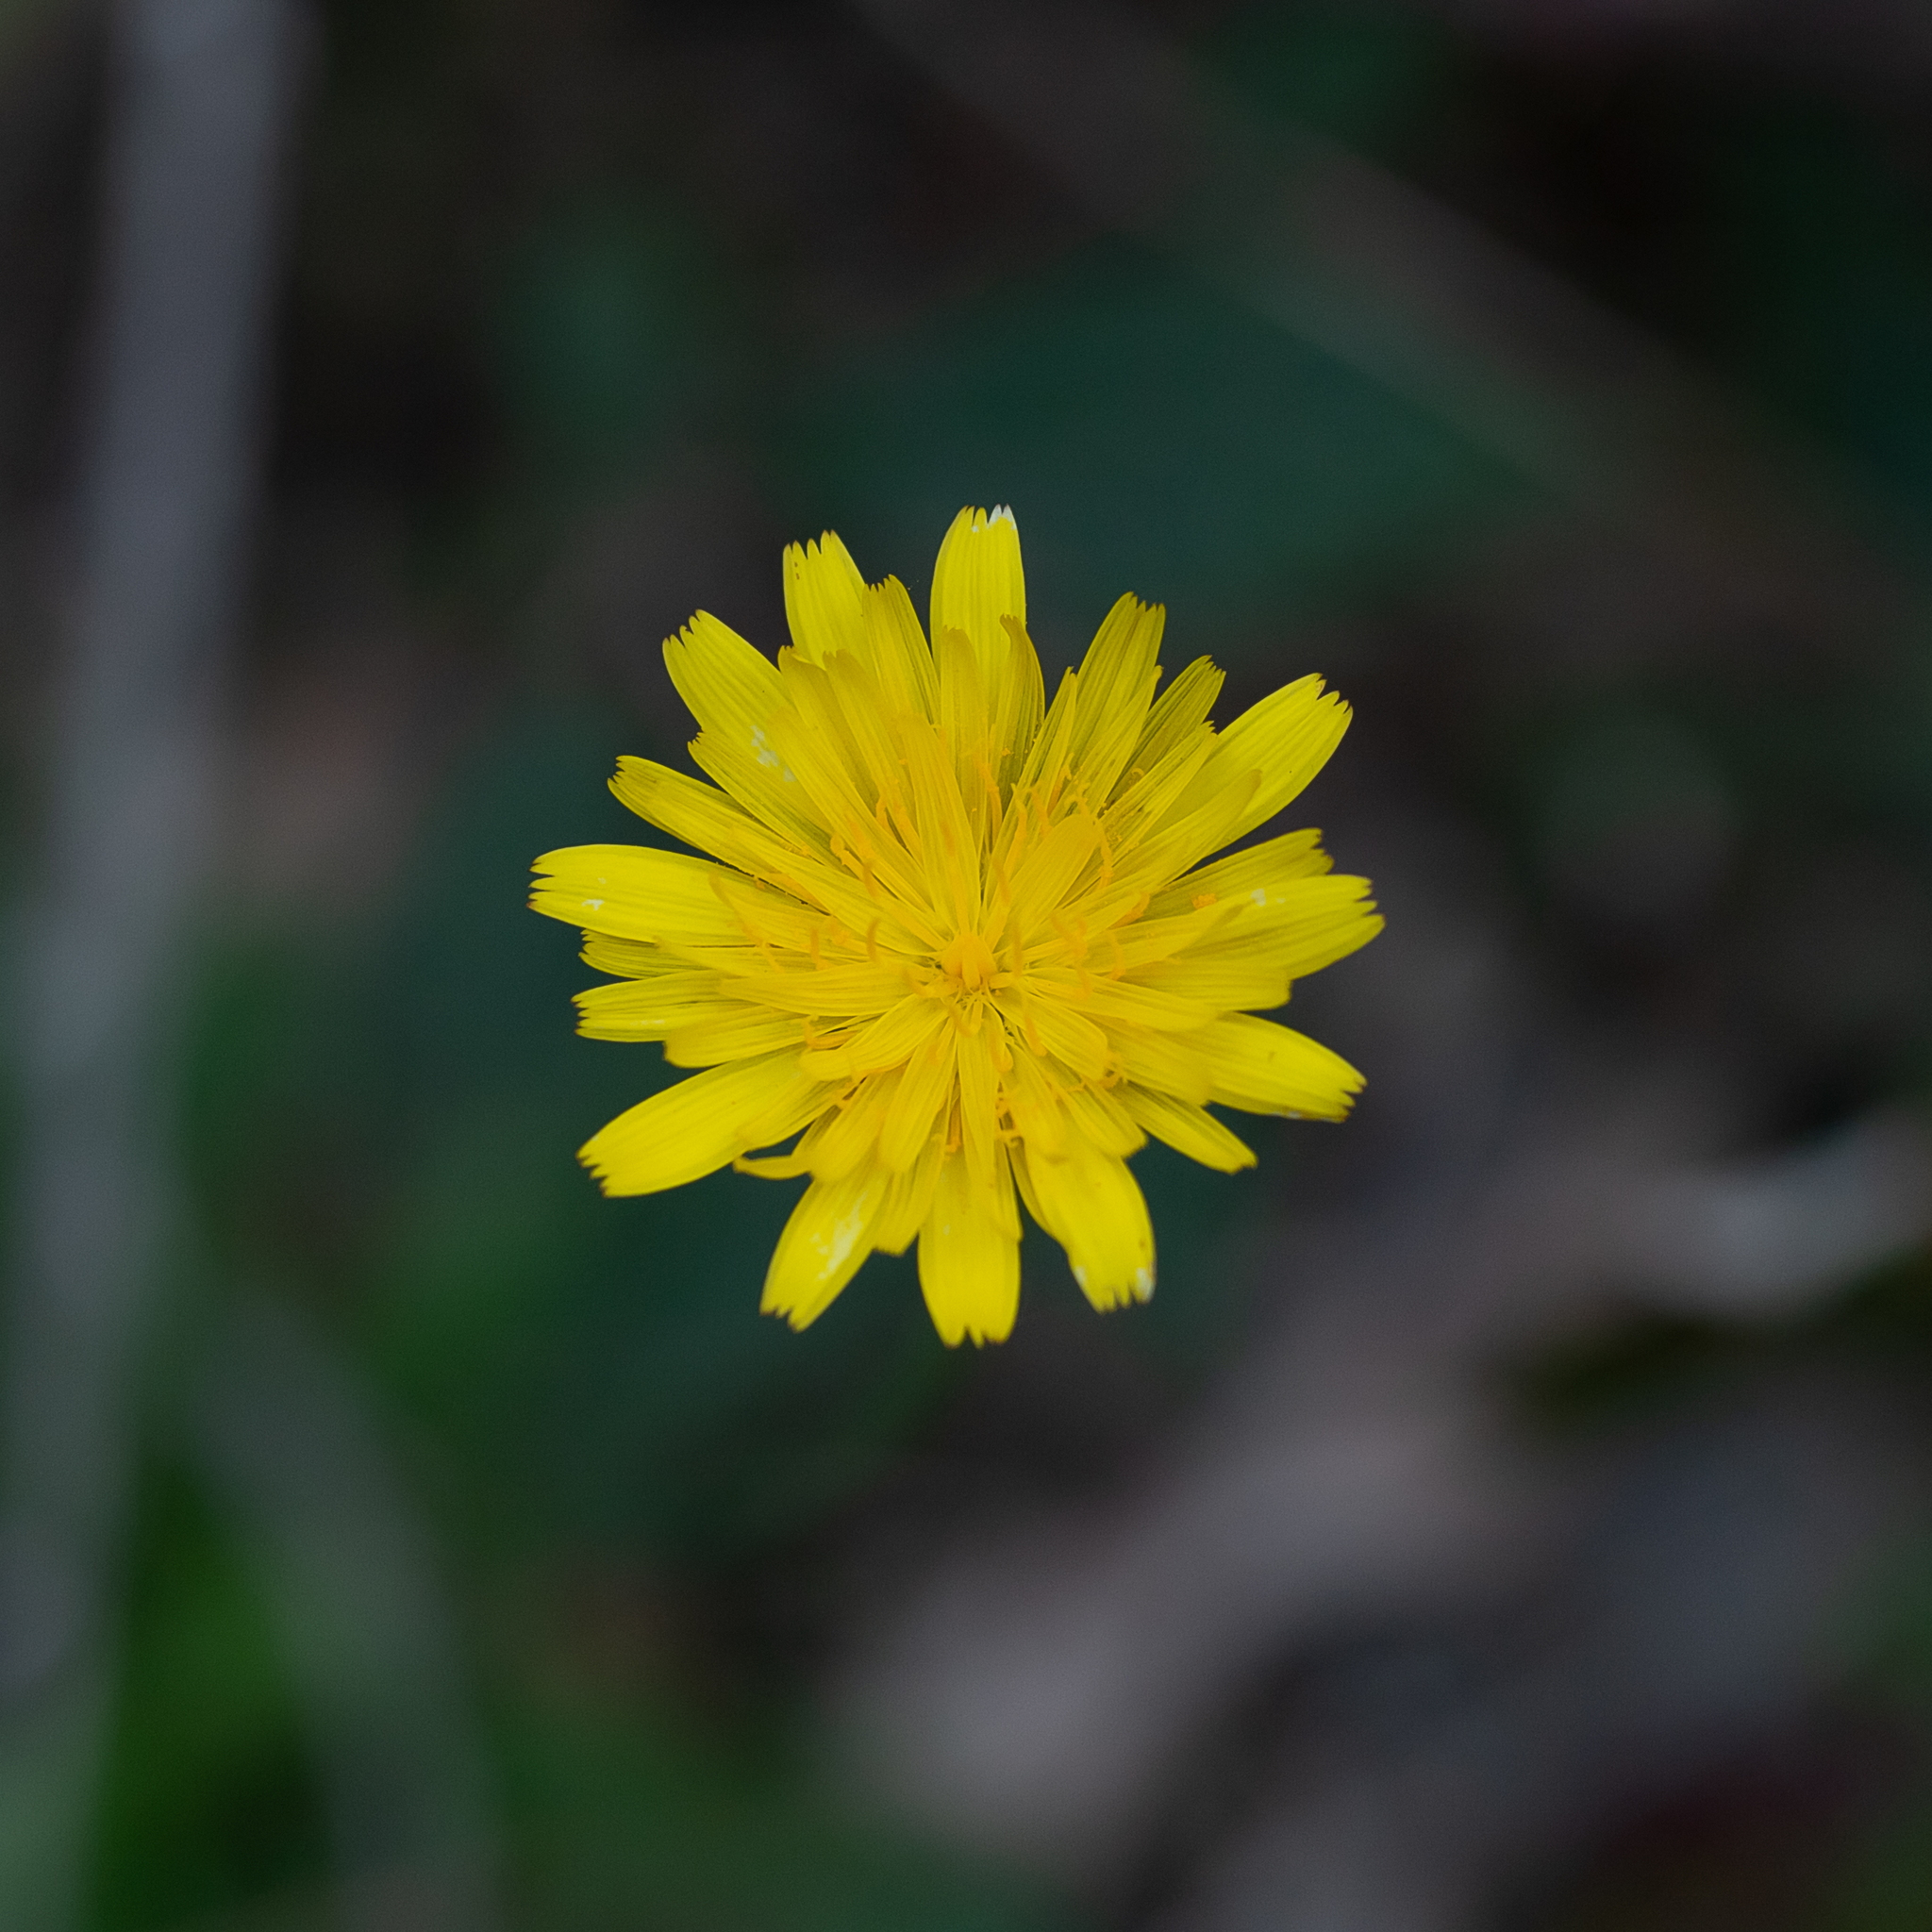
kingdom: Plantae
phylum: Tracheophyta
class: Magnoliopsida
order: Asterales
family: Asteraceae
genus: Microseris
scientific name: Microseris lanceolata
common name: Yam daisy
